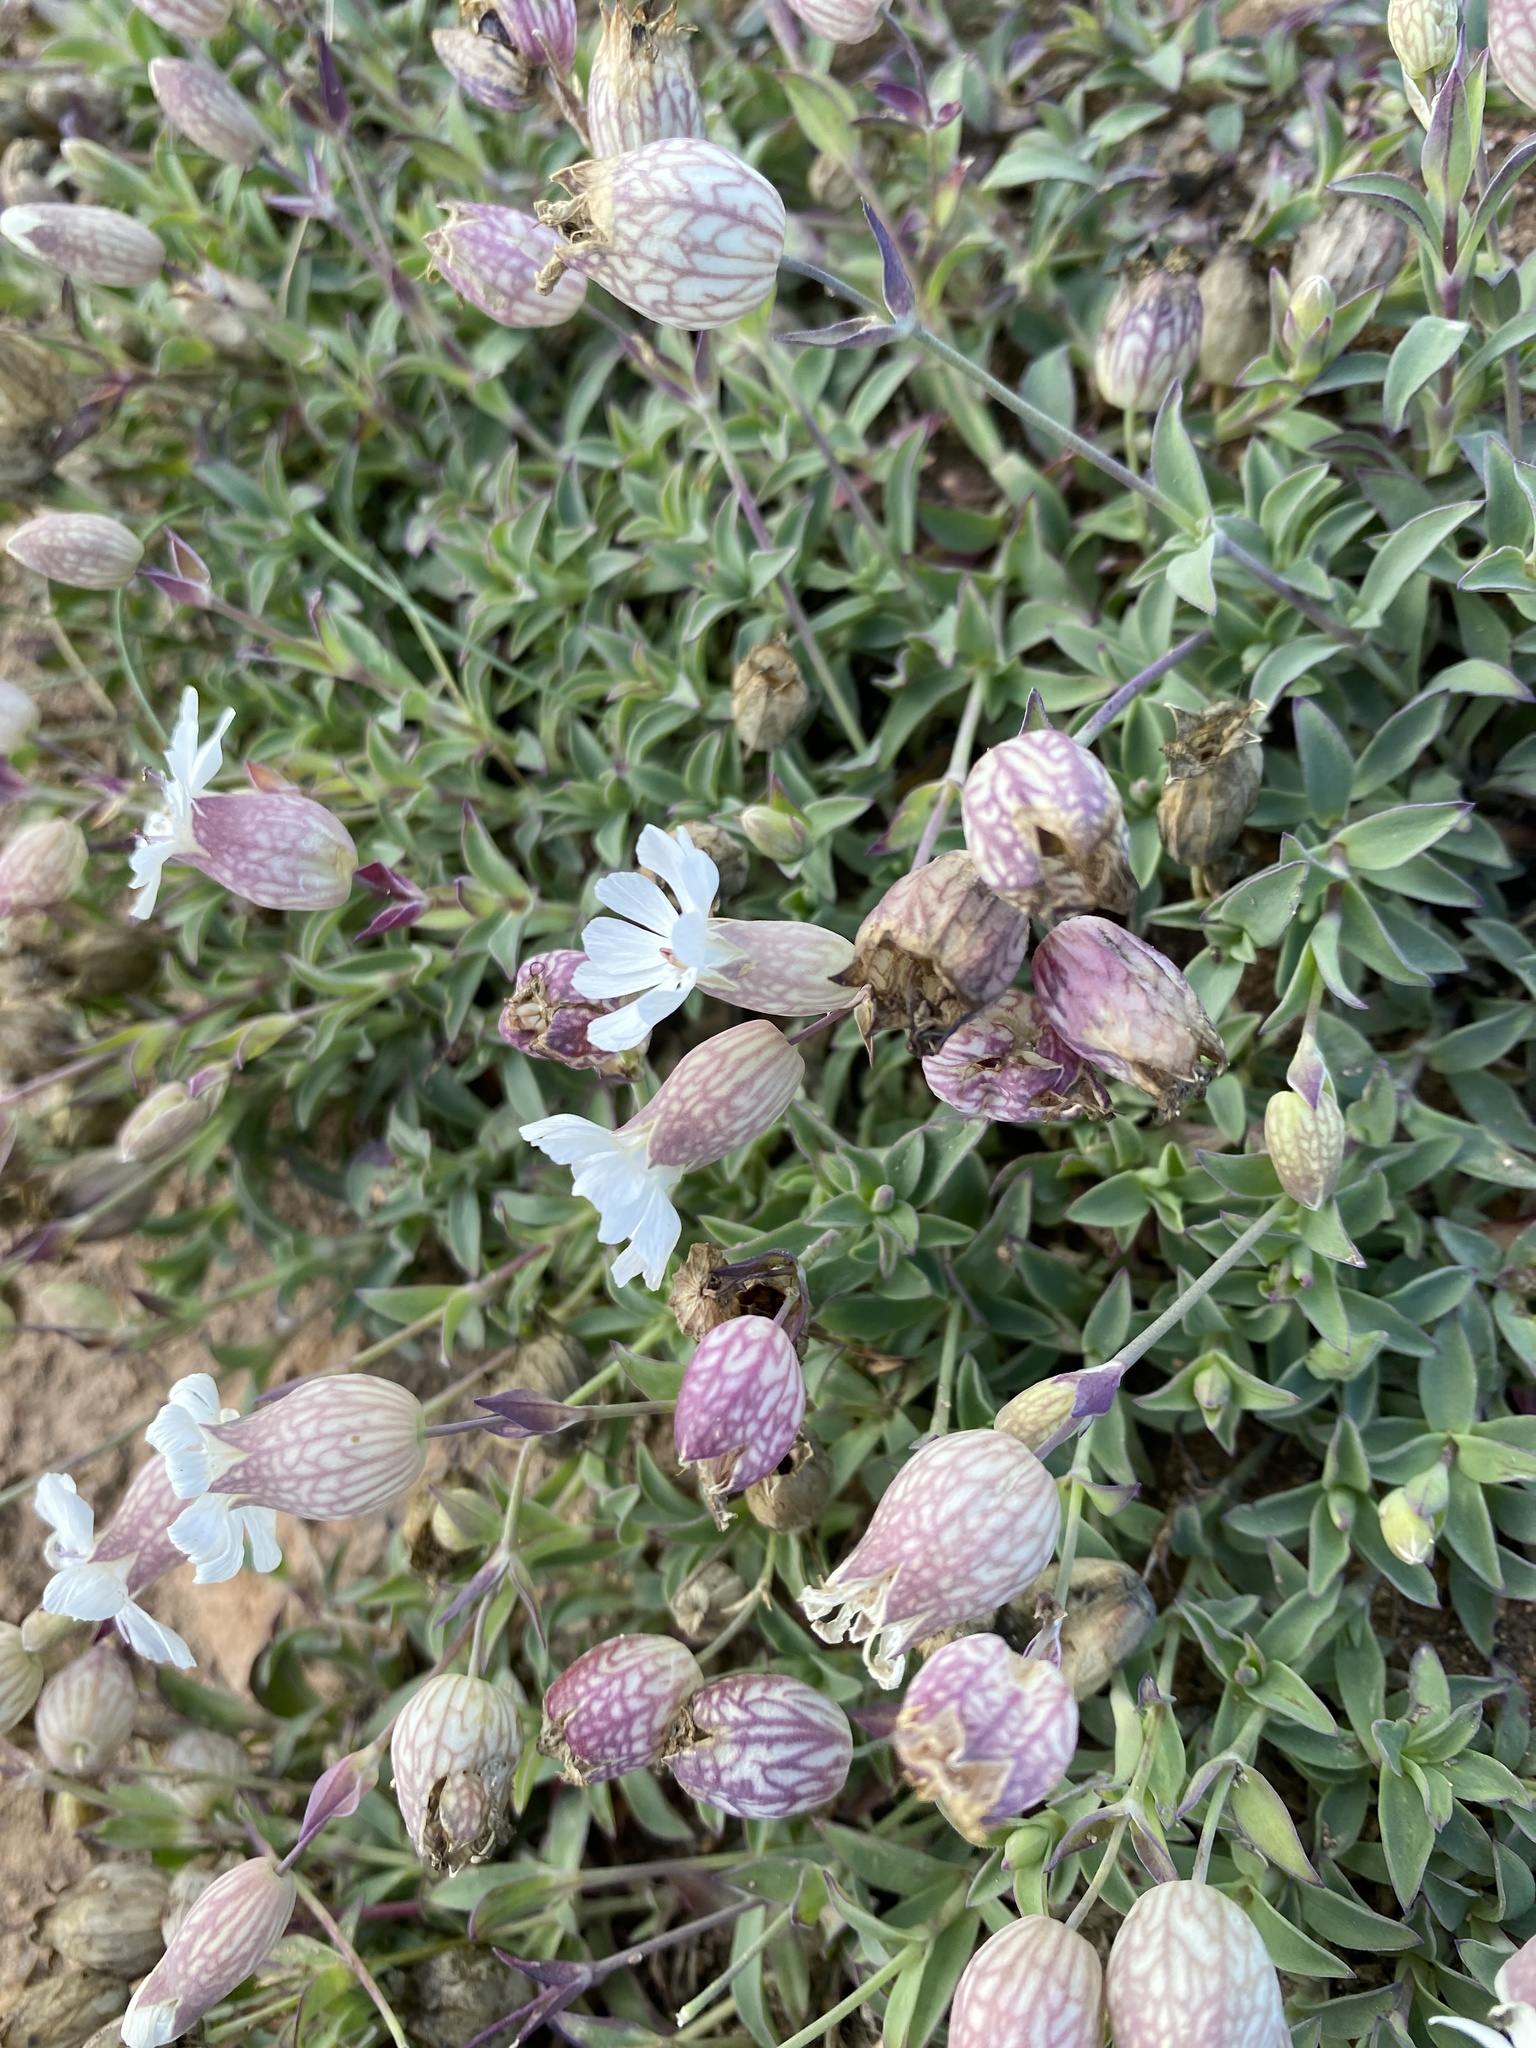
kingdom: Plantae
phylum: Tracheophyta
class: Magnoliopsida
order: Caryophyllales
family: Caryophyllaceae
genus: Silene
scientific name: Silene uniflora
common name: Sea campion
